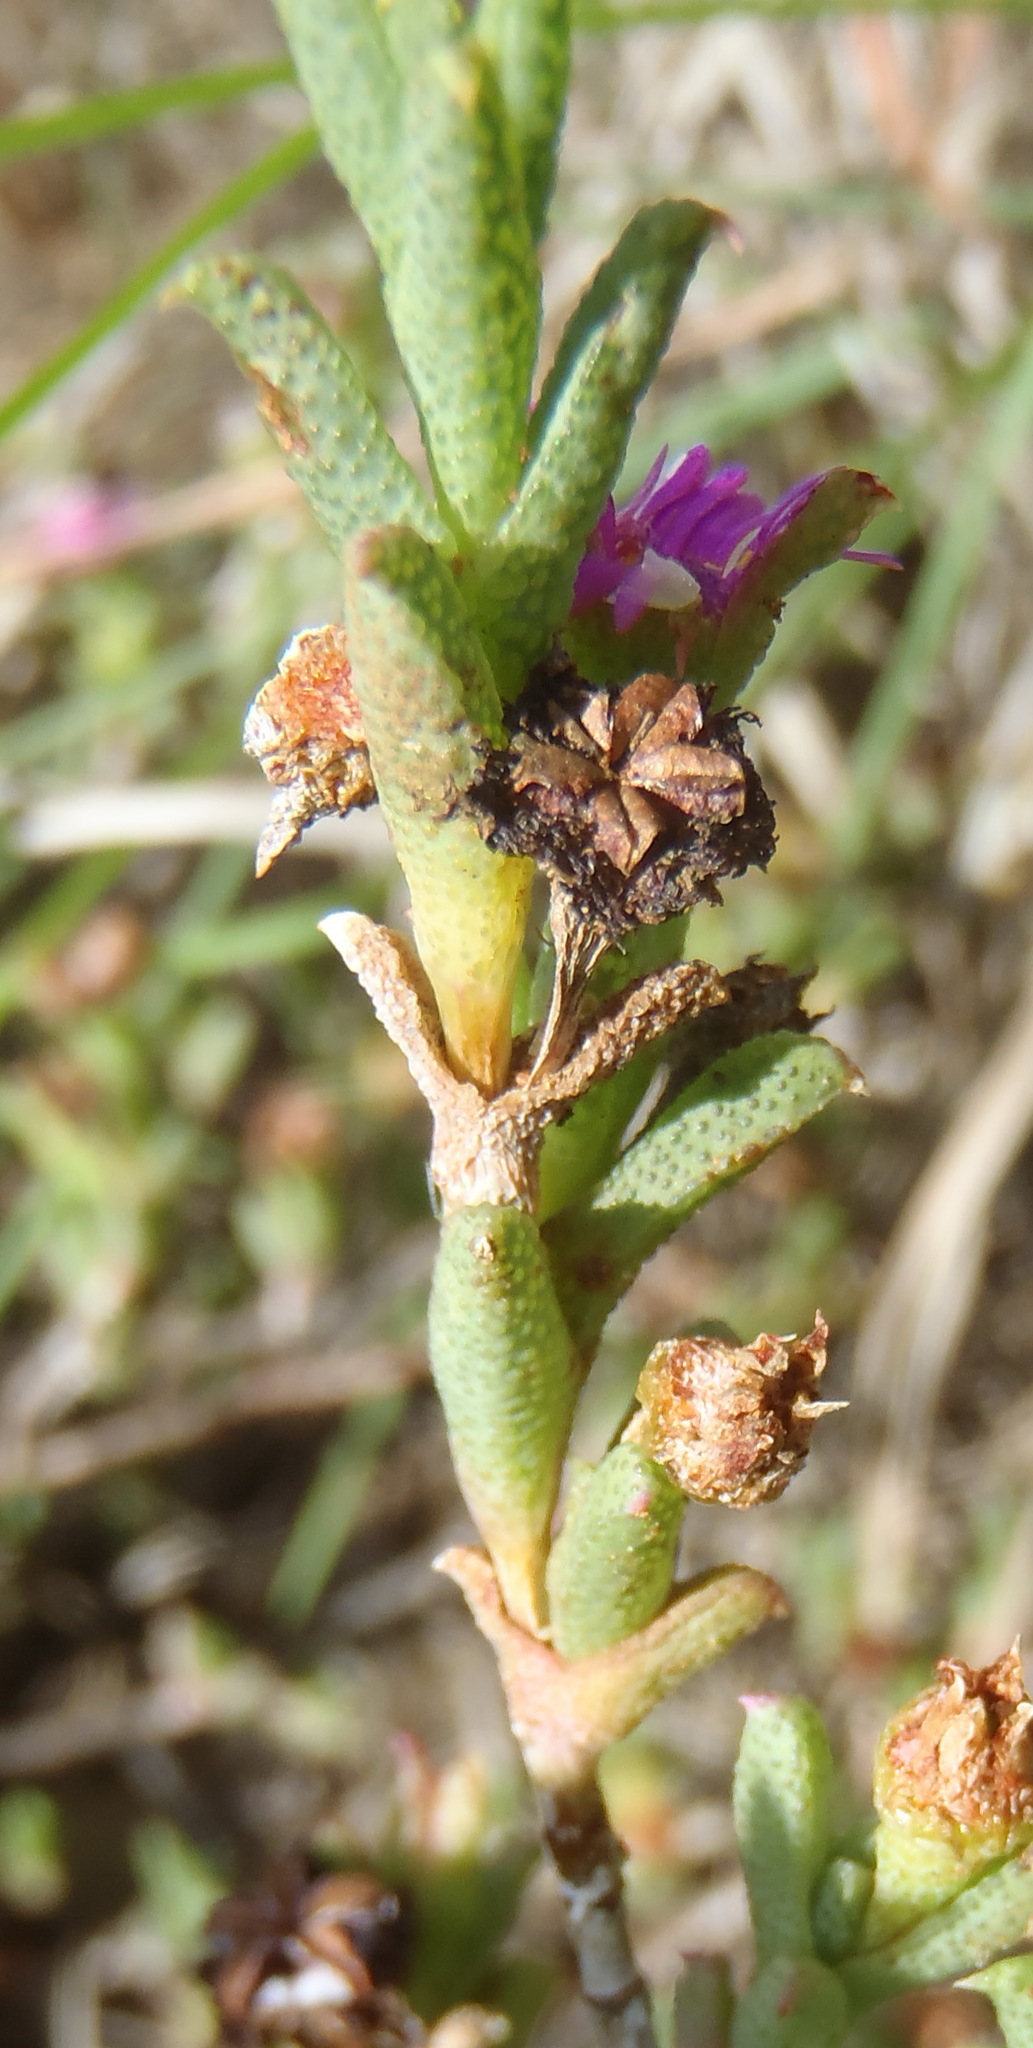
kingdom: Plantae
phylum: Tracheophyta
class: Magnoliopsida
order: Caryophyllales
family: Aizoaceae
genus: Ruschia
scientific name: Ruschia rigens
